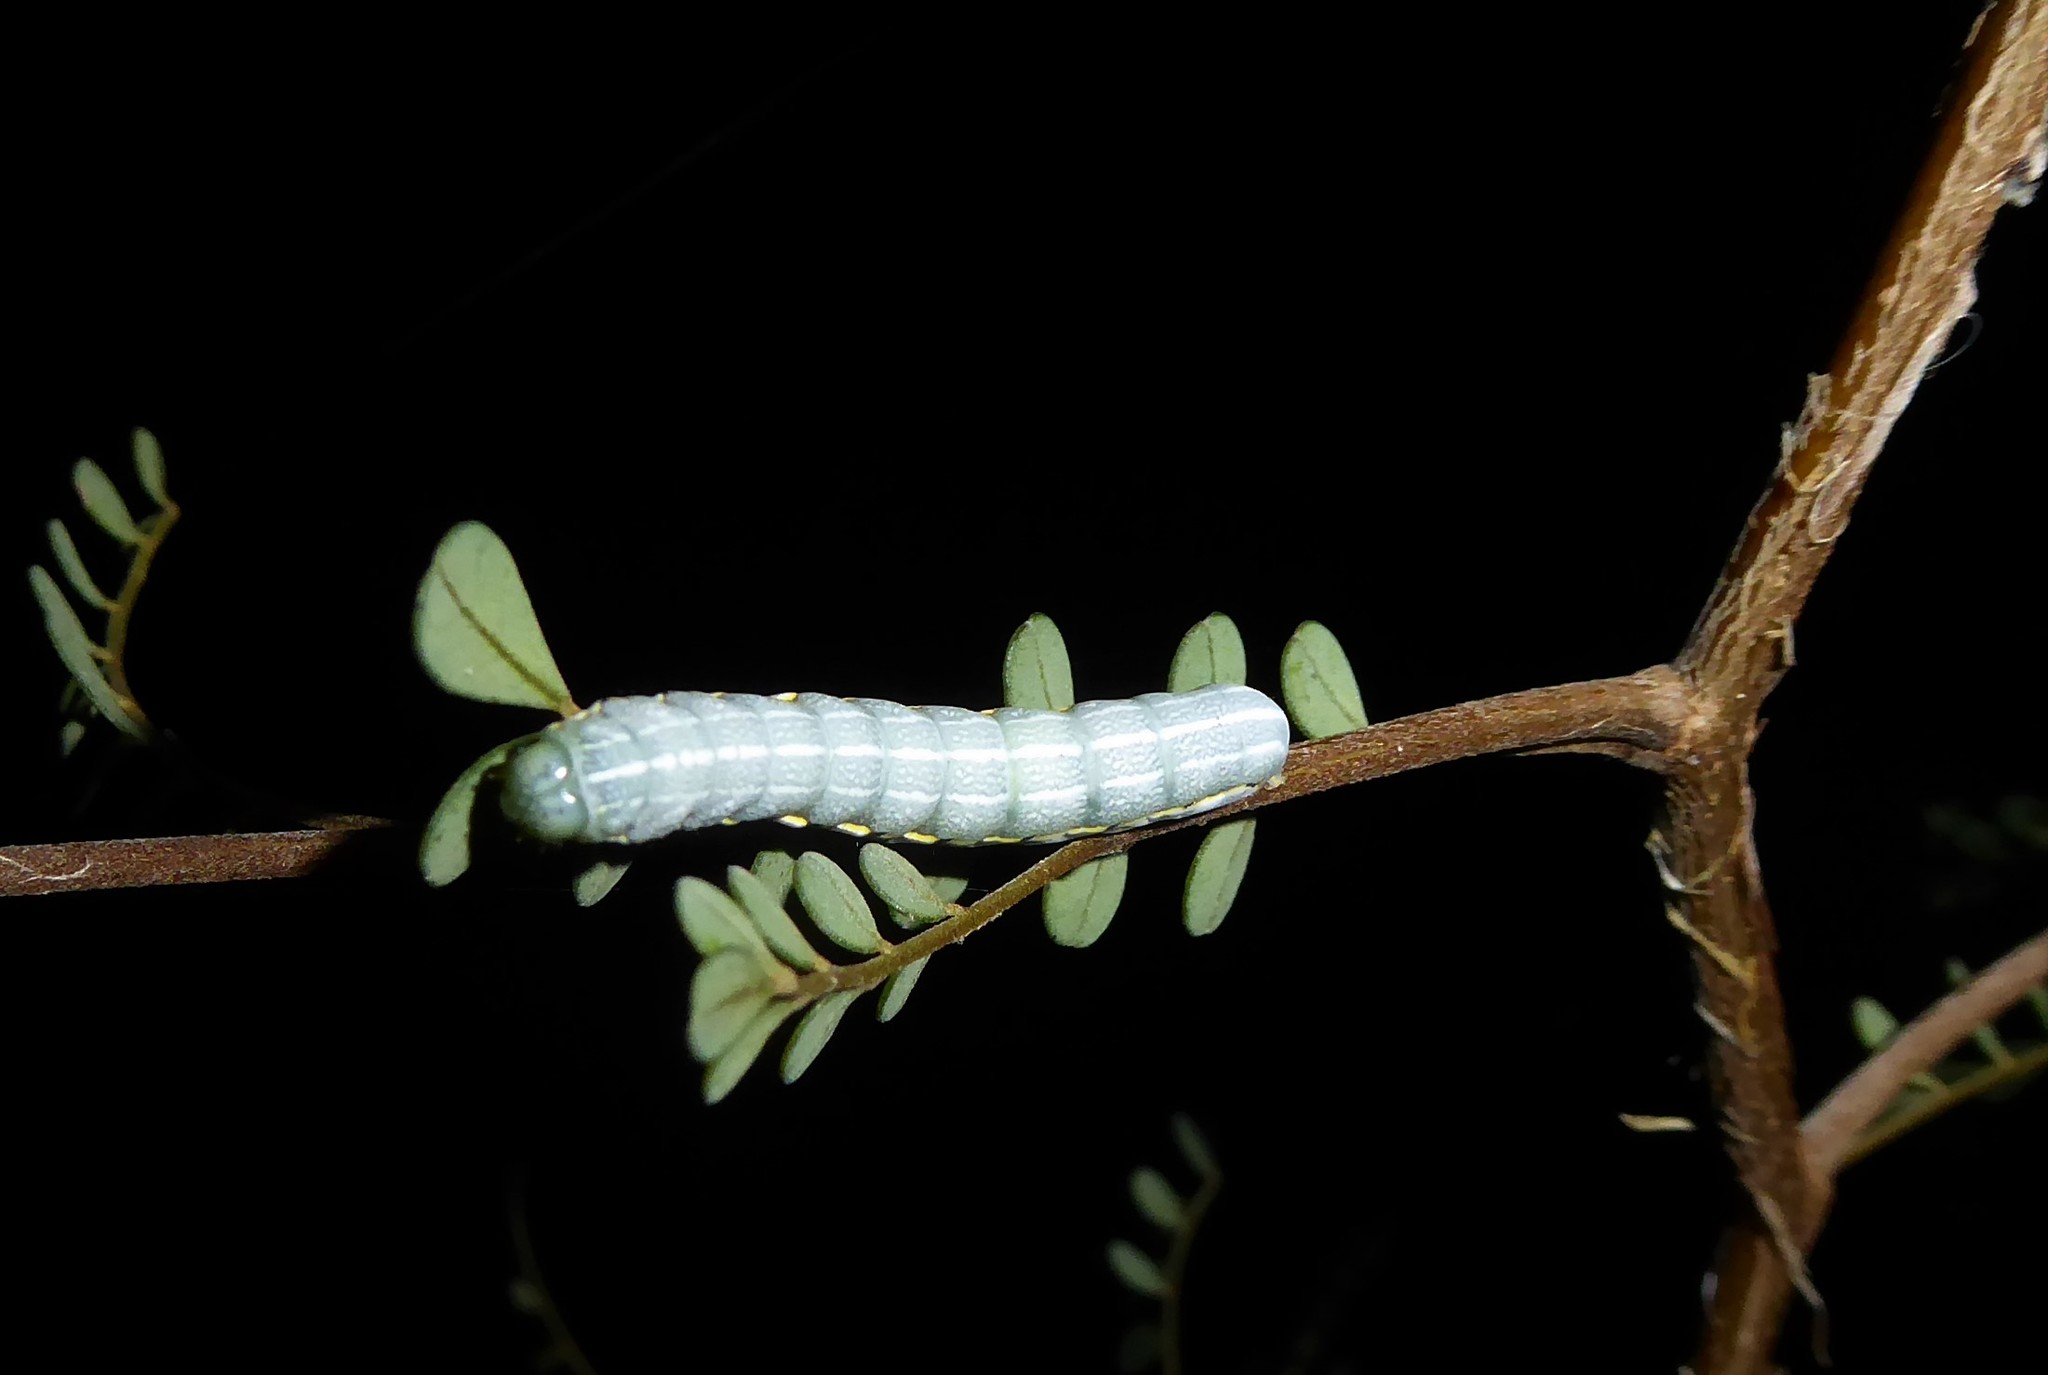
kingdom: Animalia
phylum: Arthropoda
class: Insecta
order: Lepidoptera
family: Noctuidae
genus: Meterana
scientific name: Meterana decorata
